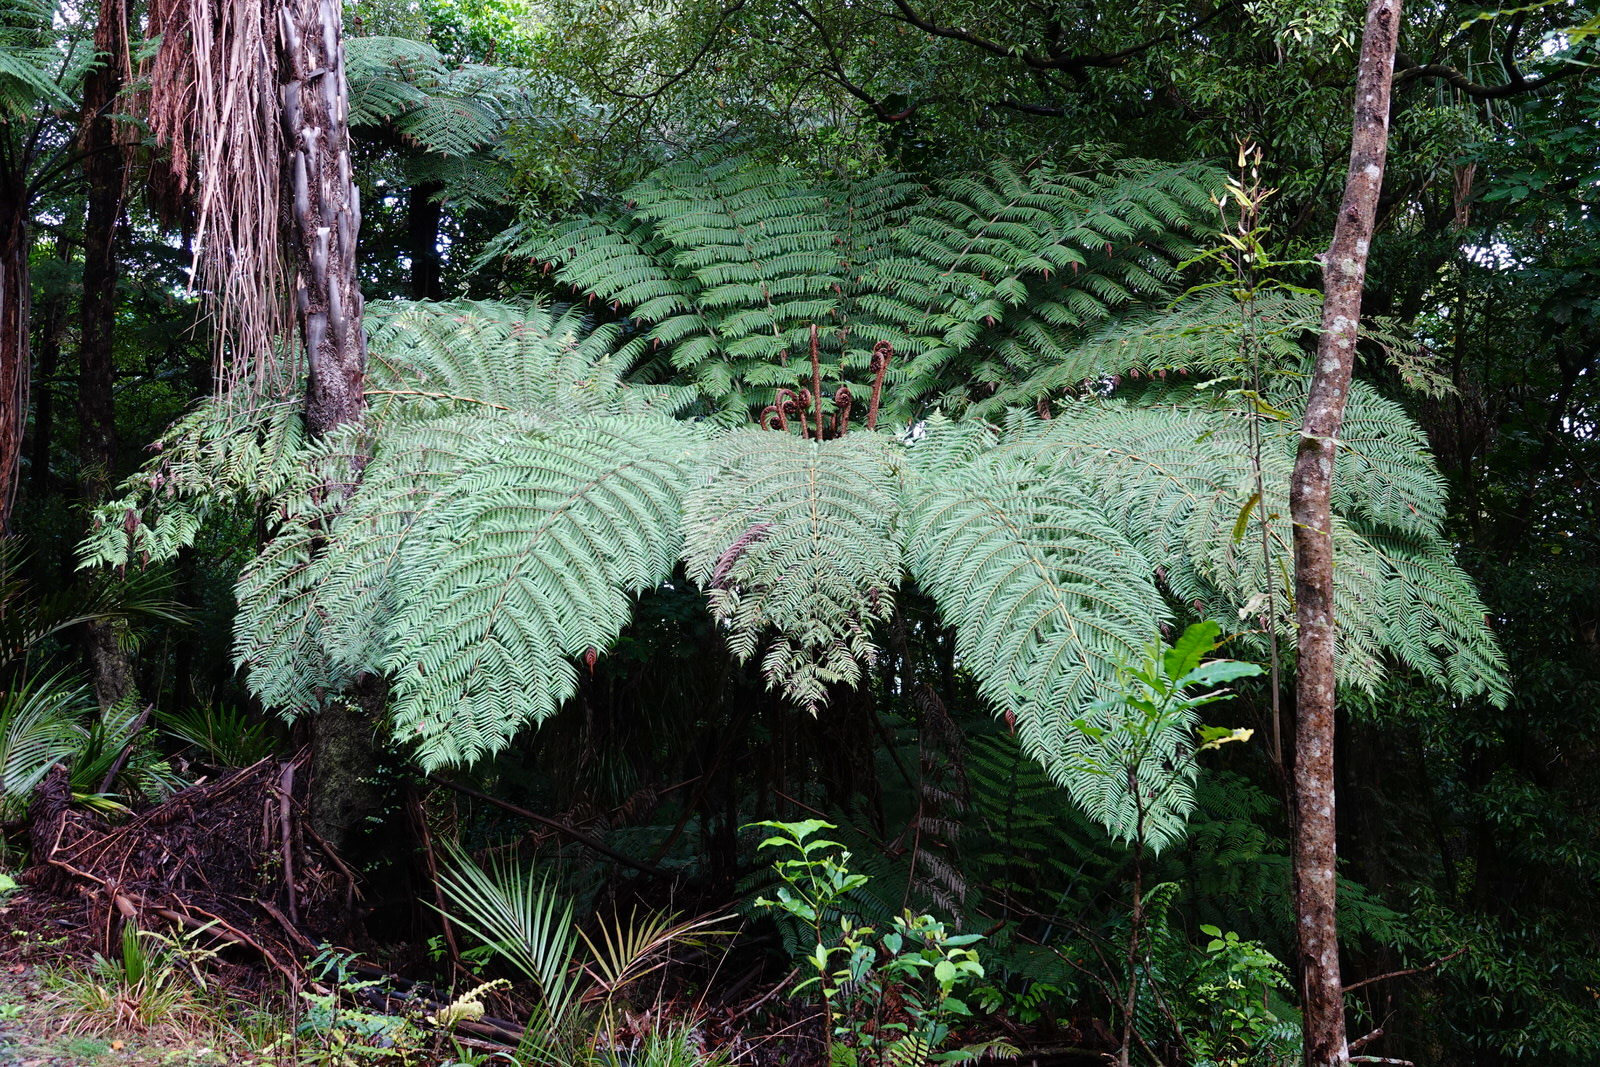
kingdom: Plantae
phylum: Tracheophyta
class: Polypodiopsida
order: Cyatheales
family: Cyatheaceae
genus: Alsophila
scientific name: Alsophila dealbata
